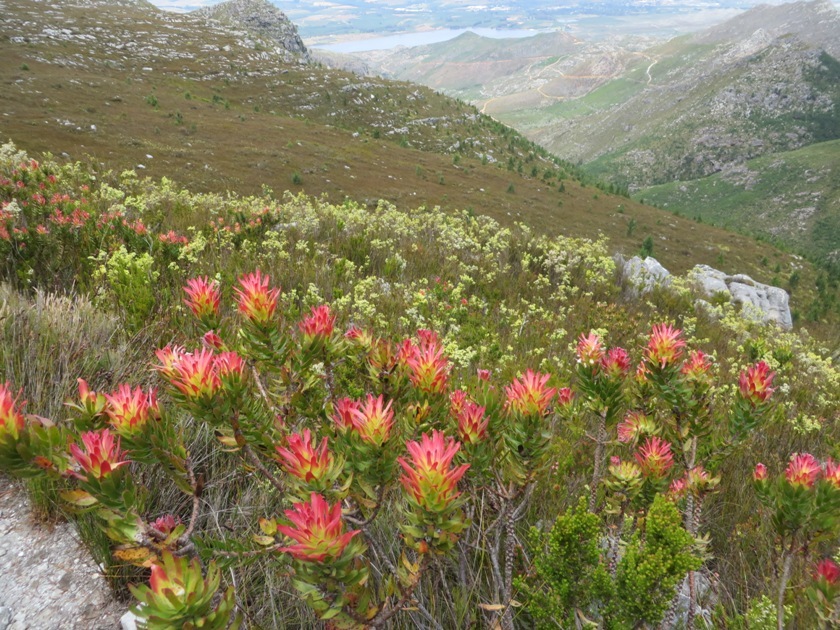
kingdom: Plantae
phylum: Tracheophyta
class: Magnoliopsida
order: Proteales
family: Proteaceae
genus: Mimetes
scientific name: Mimetes cucullatus
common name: Common pagoda
